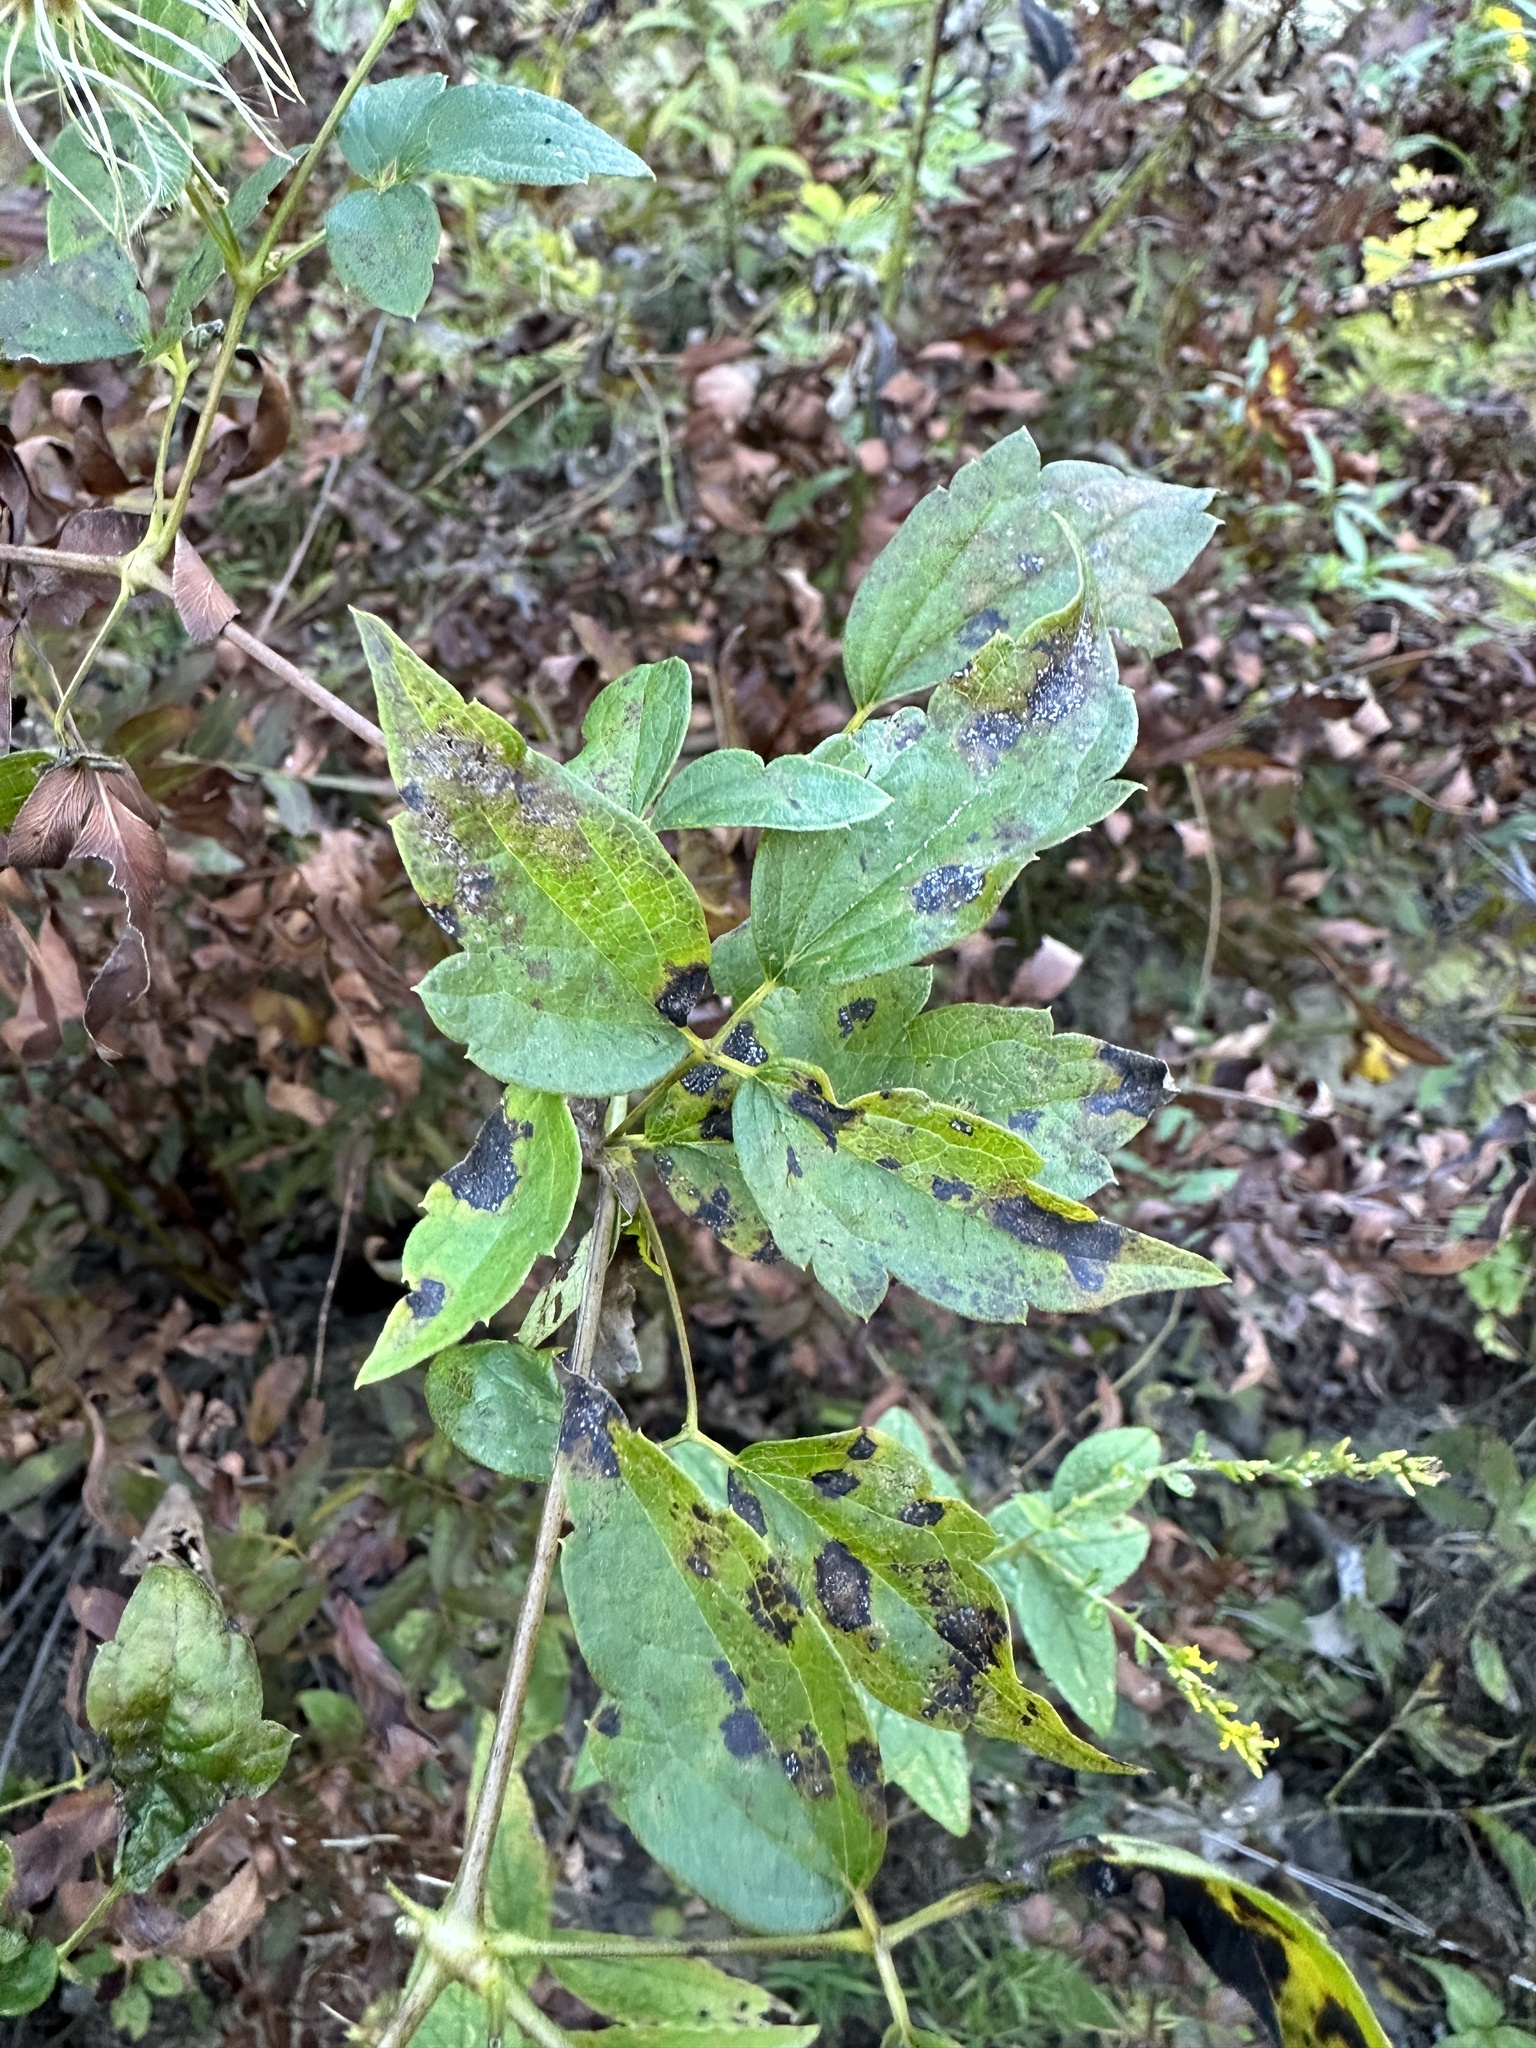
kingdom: Plantae
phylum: Tracheophyta
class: Magnoliopsida
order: Ranunculales
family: Ranunculaceae
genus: Clematis
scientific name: Clematis virginiana
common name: Virgin's-bower
